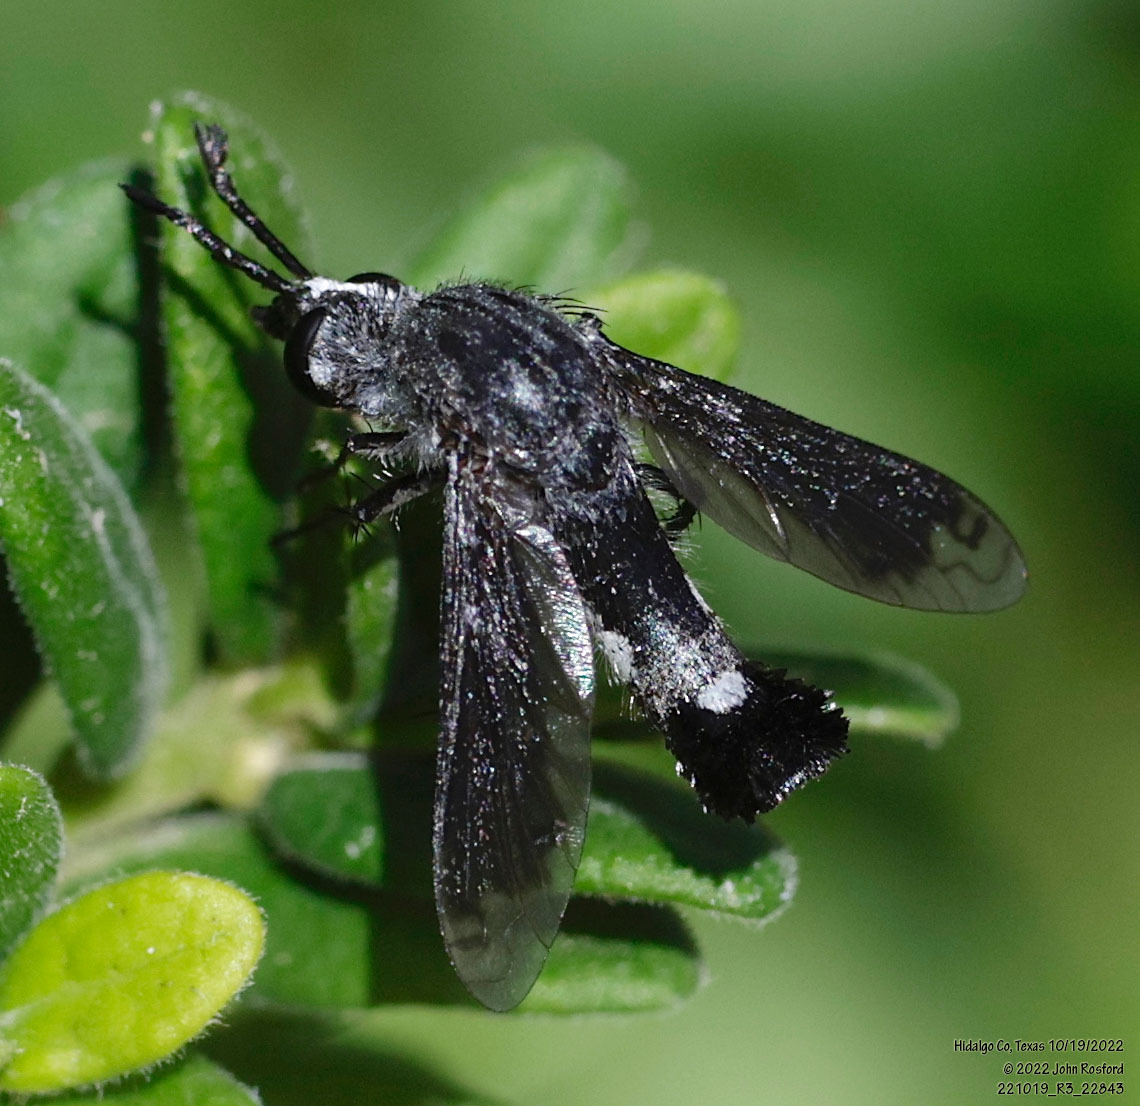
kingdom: Animalia
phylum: Arthropoda
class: Insecta
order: Diptera
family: Bombyliidae
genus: Lepidophora
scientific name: Lepidophora vetusta
